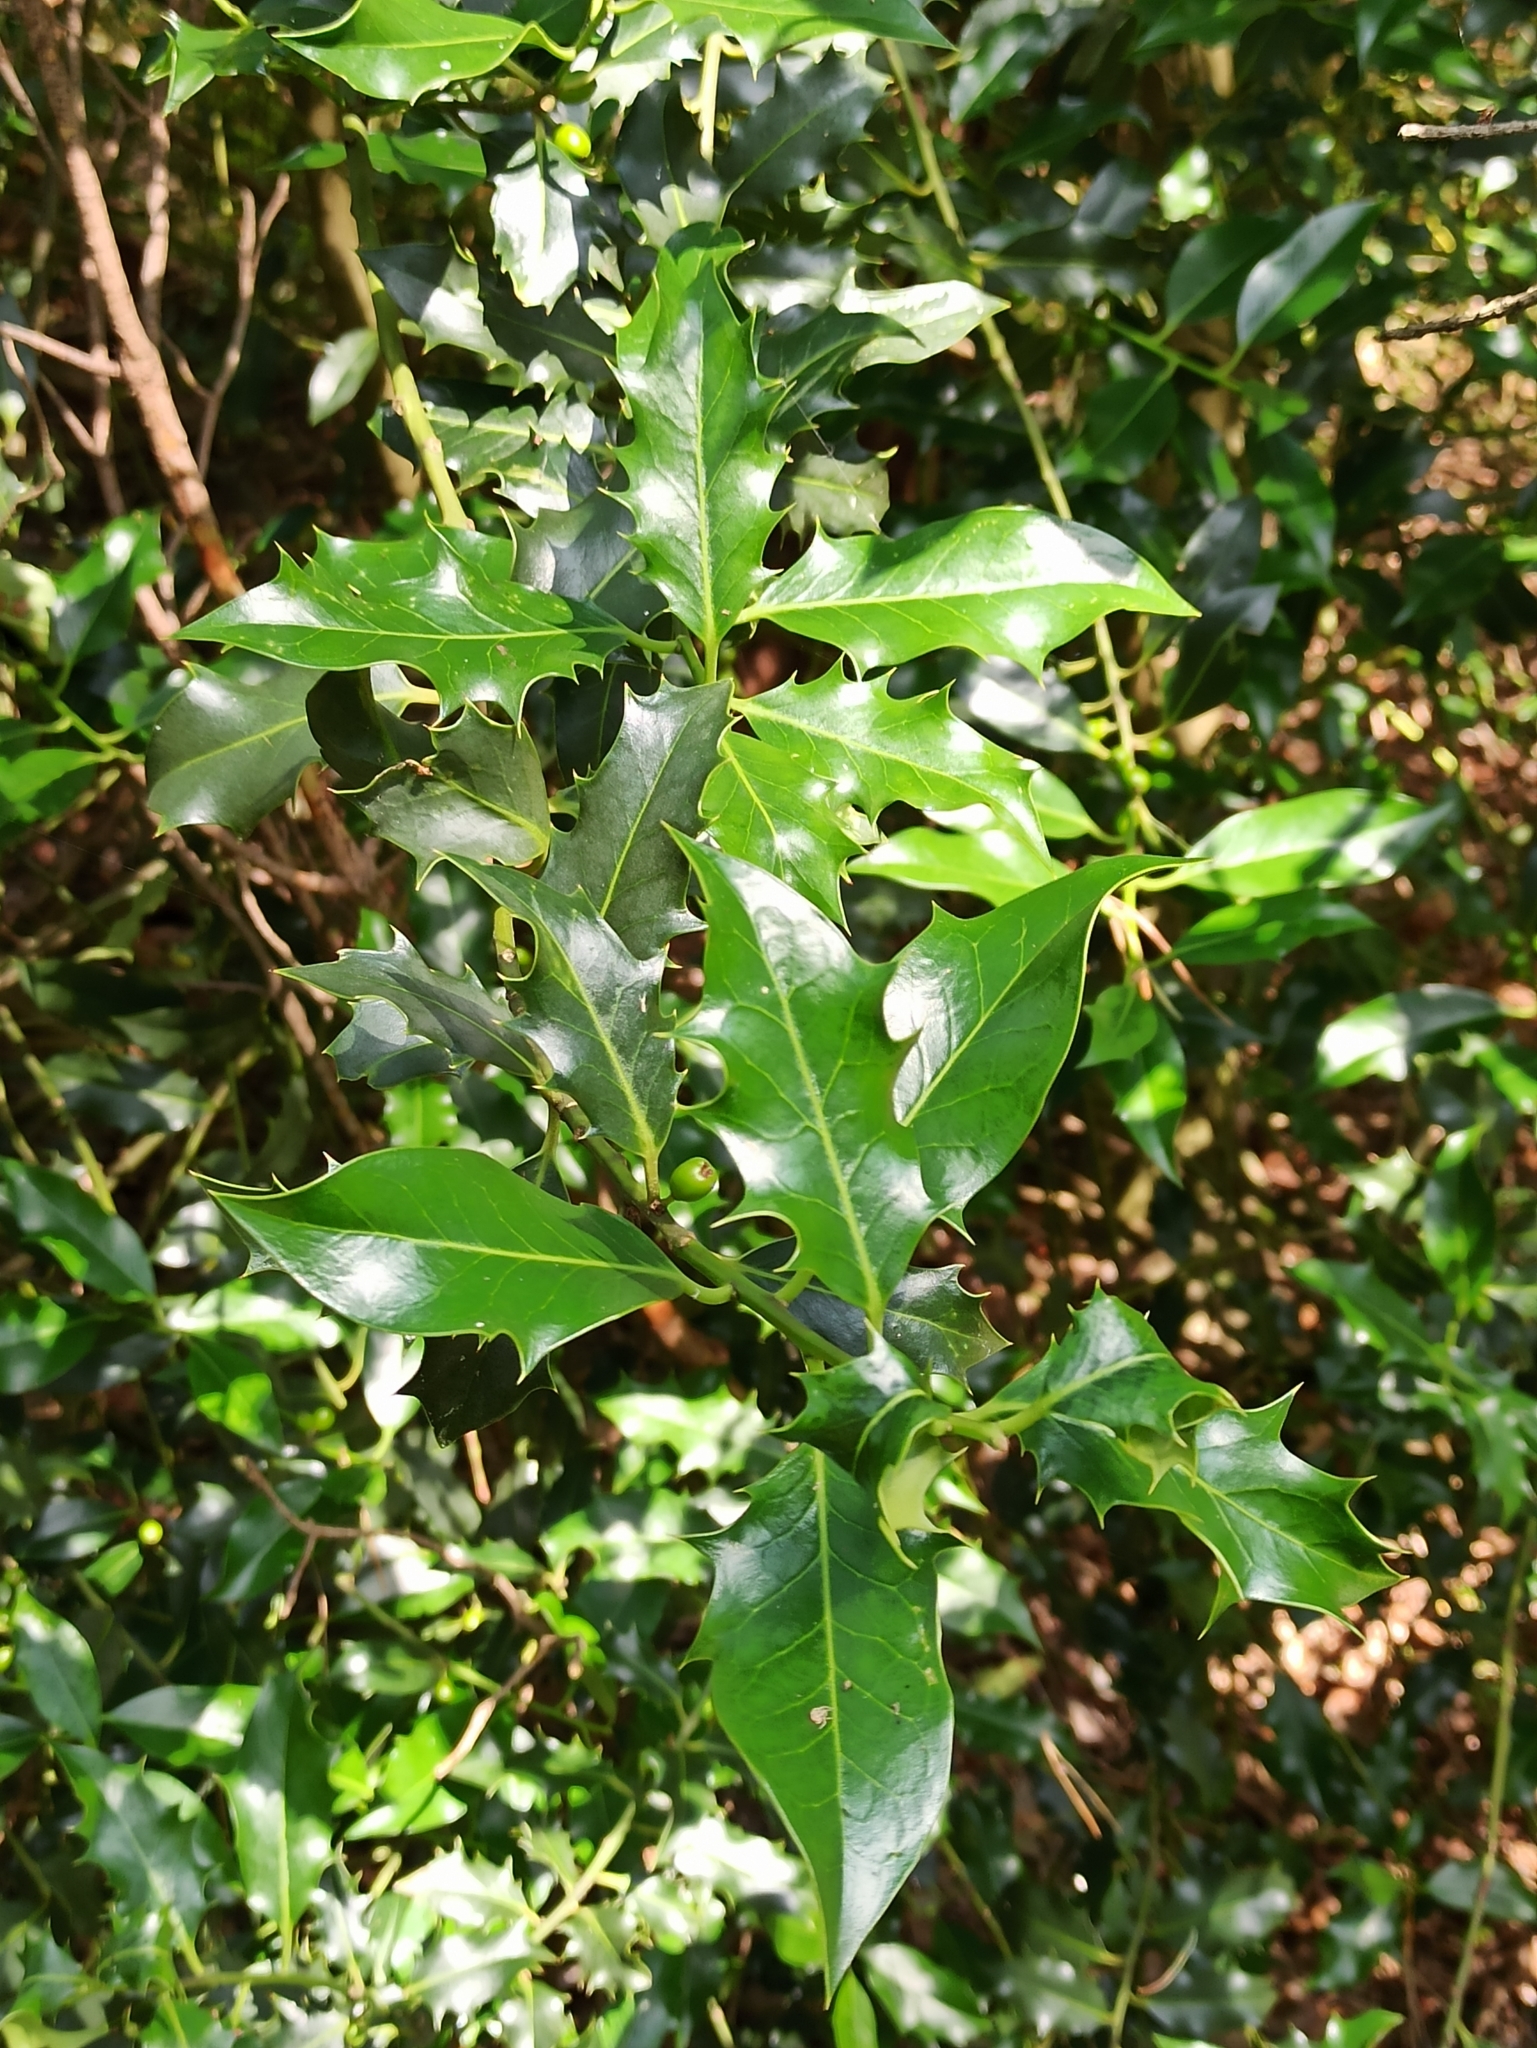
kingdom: Plantae
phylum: Tracheophyta
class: Magnoliopsida
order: Aquifoliales
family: Aquifoliaceae
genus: Ilex
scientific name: Ilex aquifolium
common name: English holly
